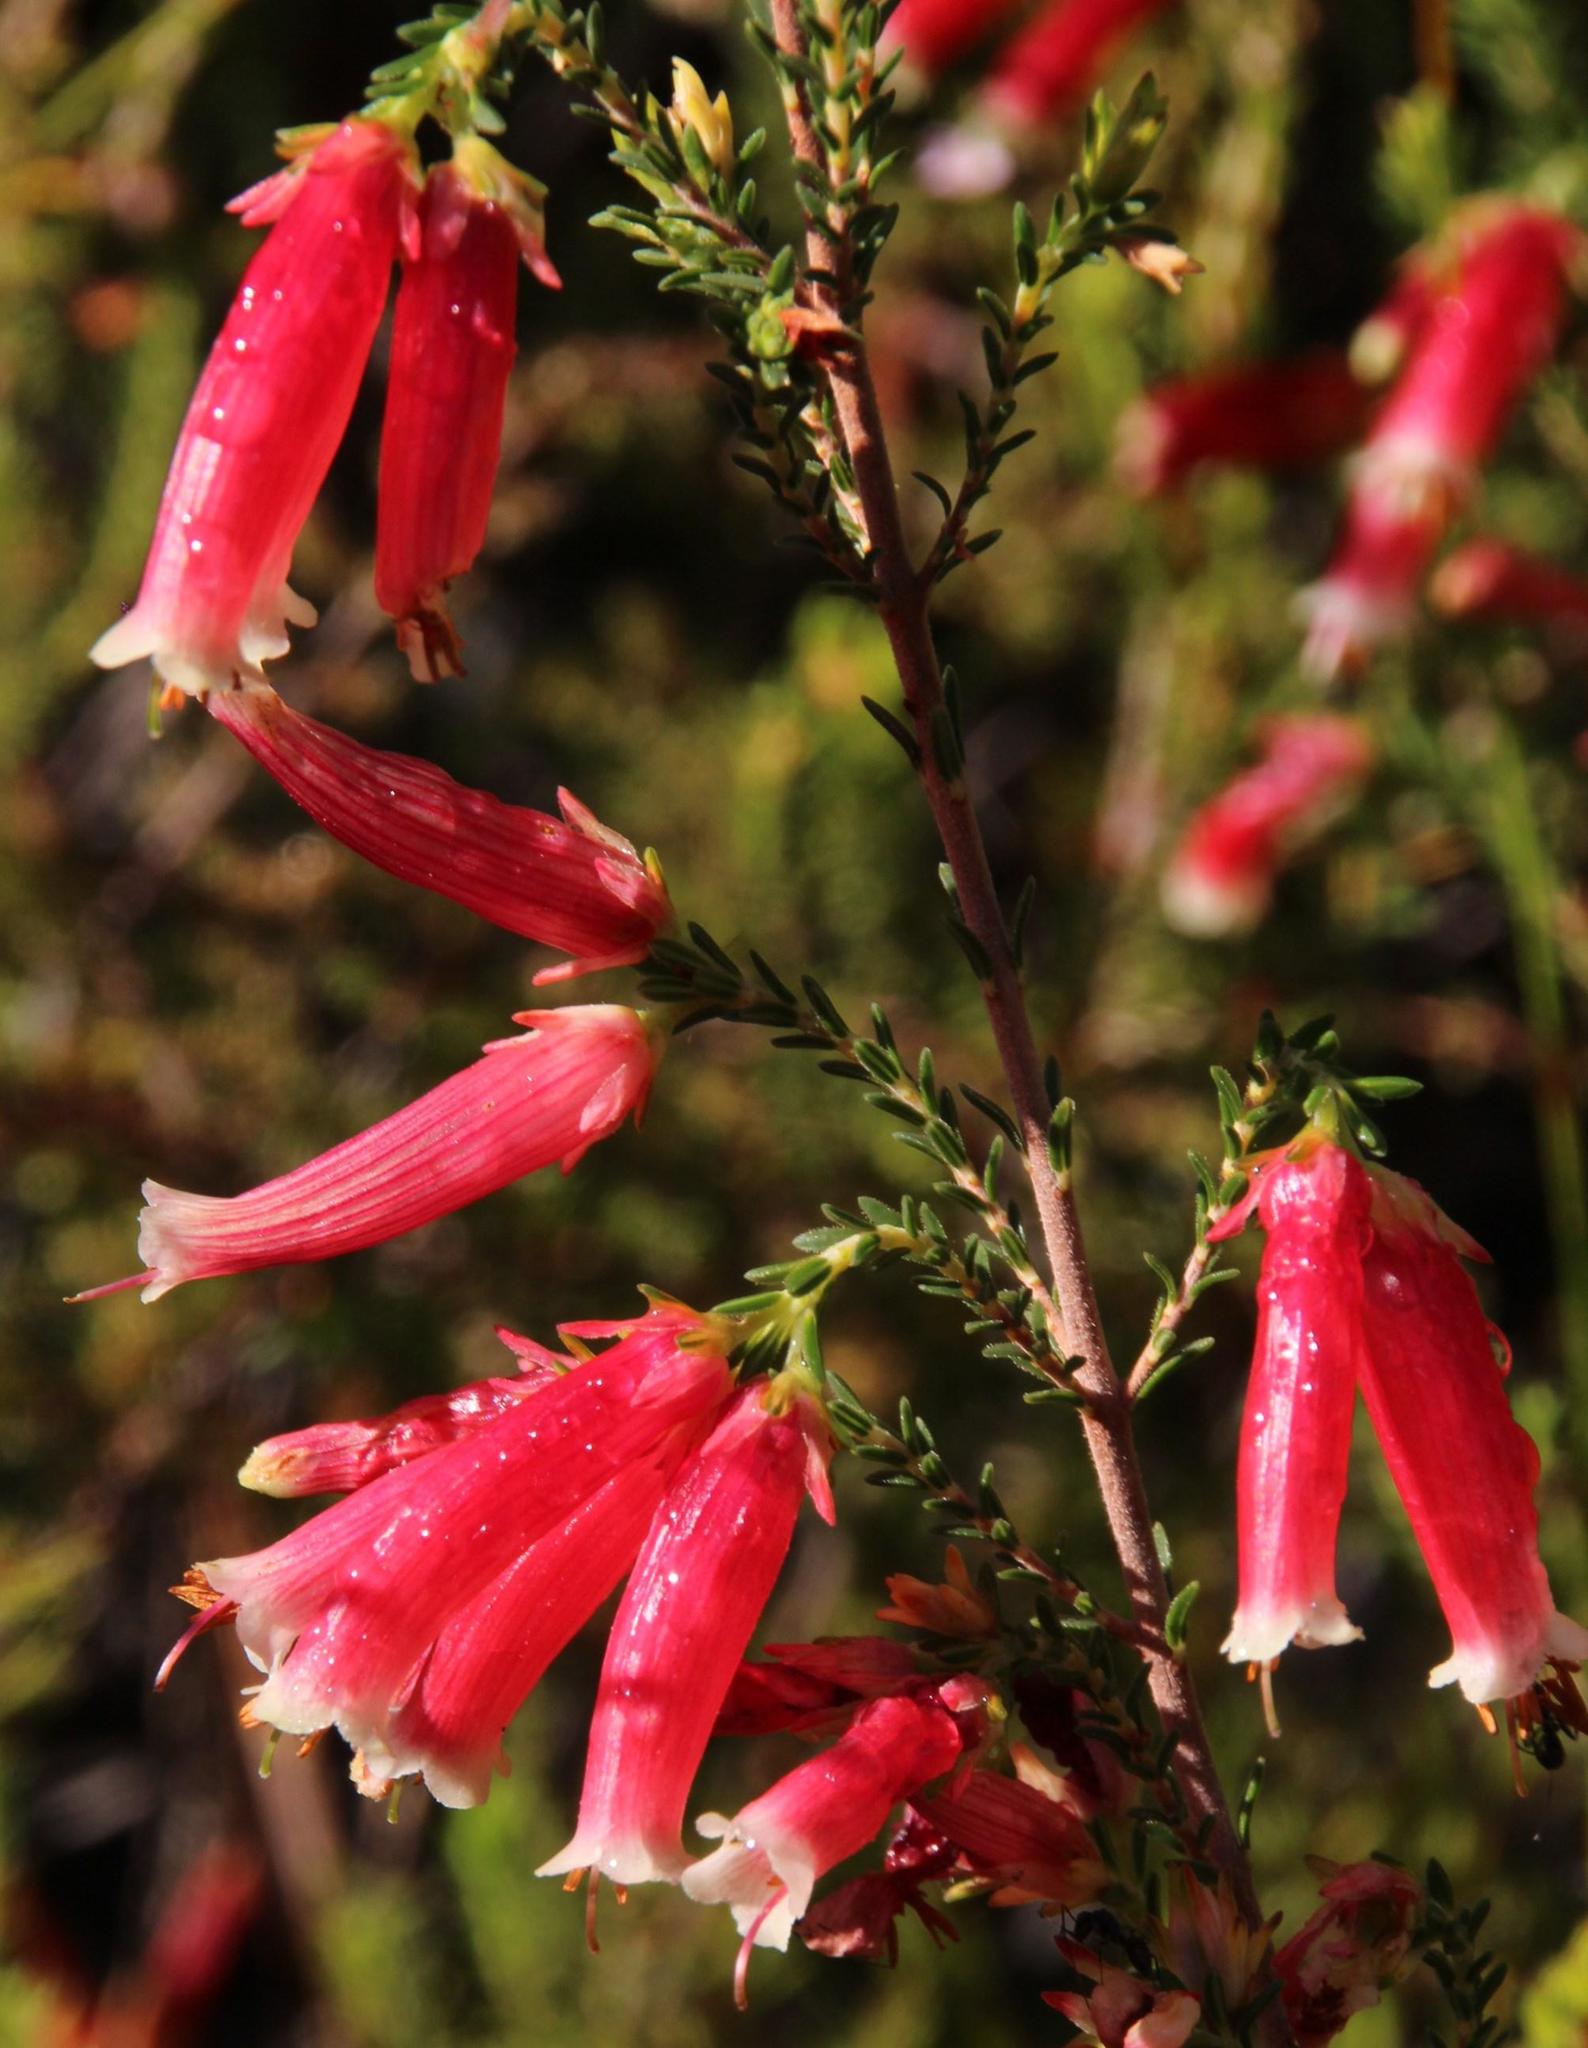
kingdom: Plantae
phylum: Tracheophyta
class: Magnoliopsida
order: Ericales
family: Ericaceae
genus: Erica
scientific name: Erica versicolor
